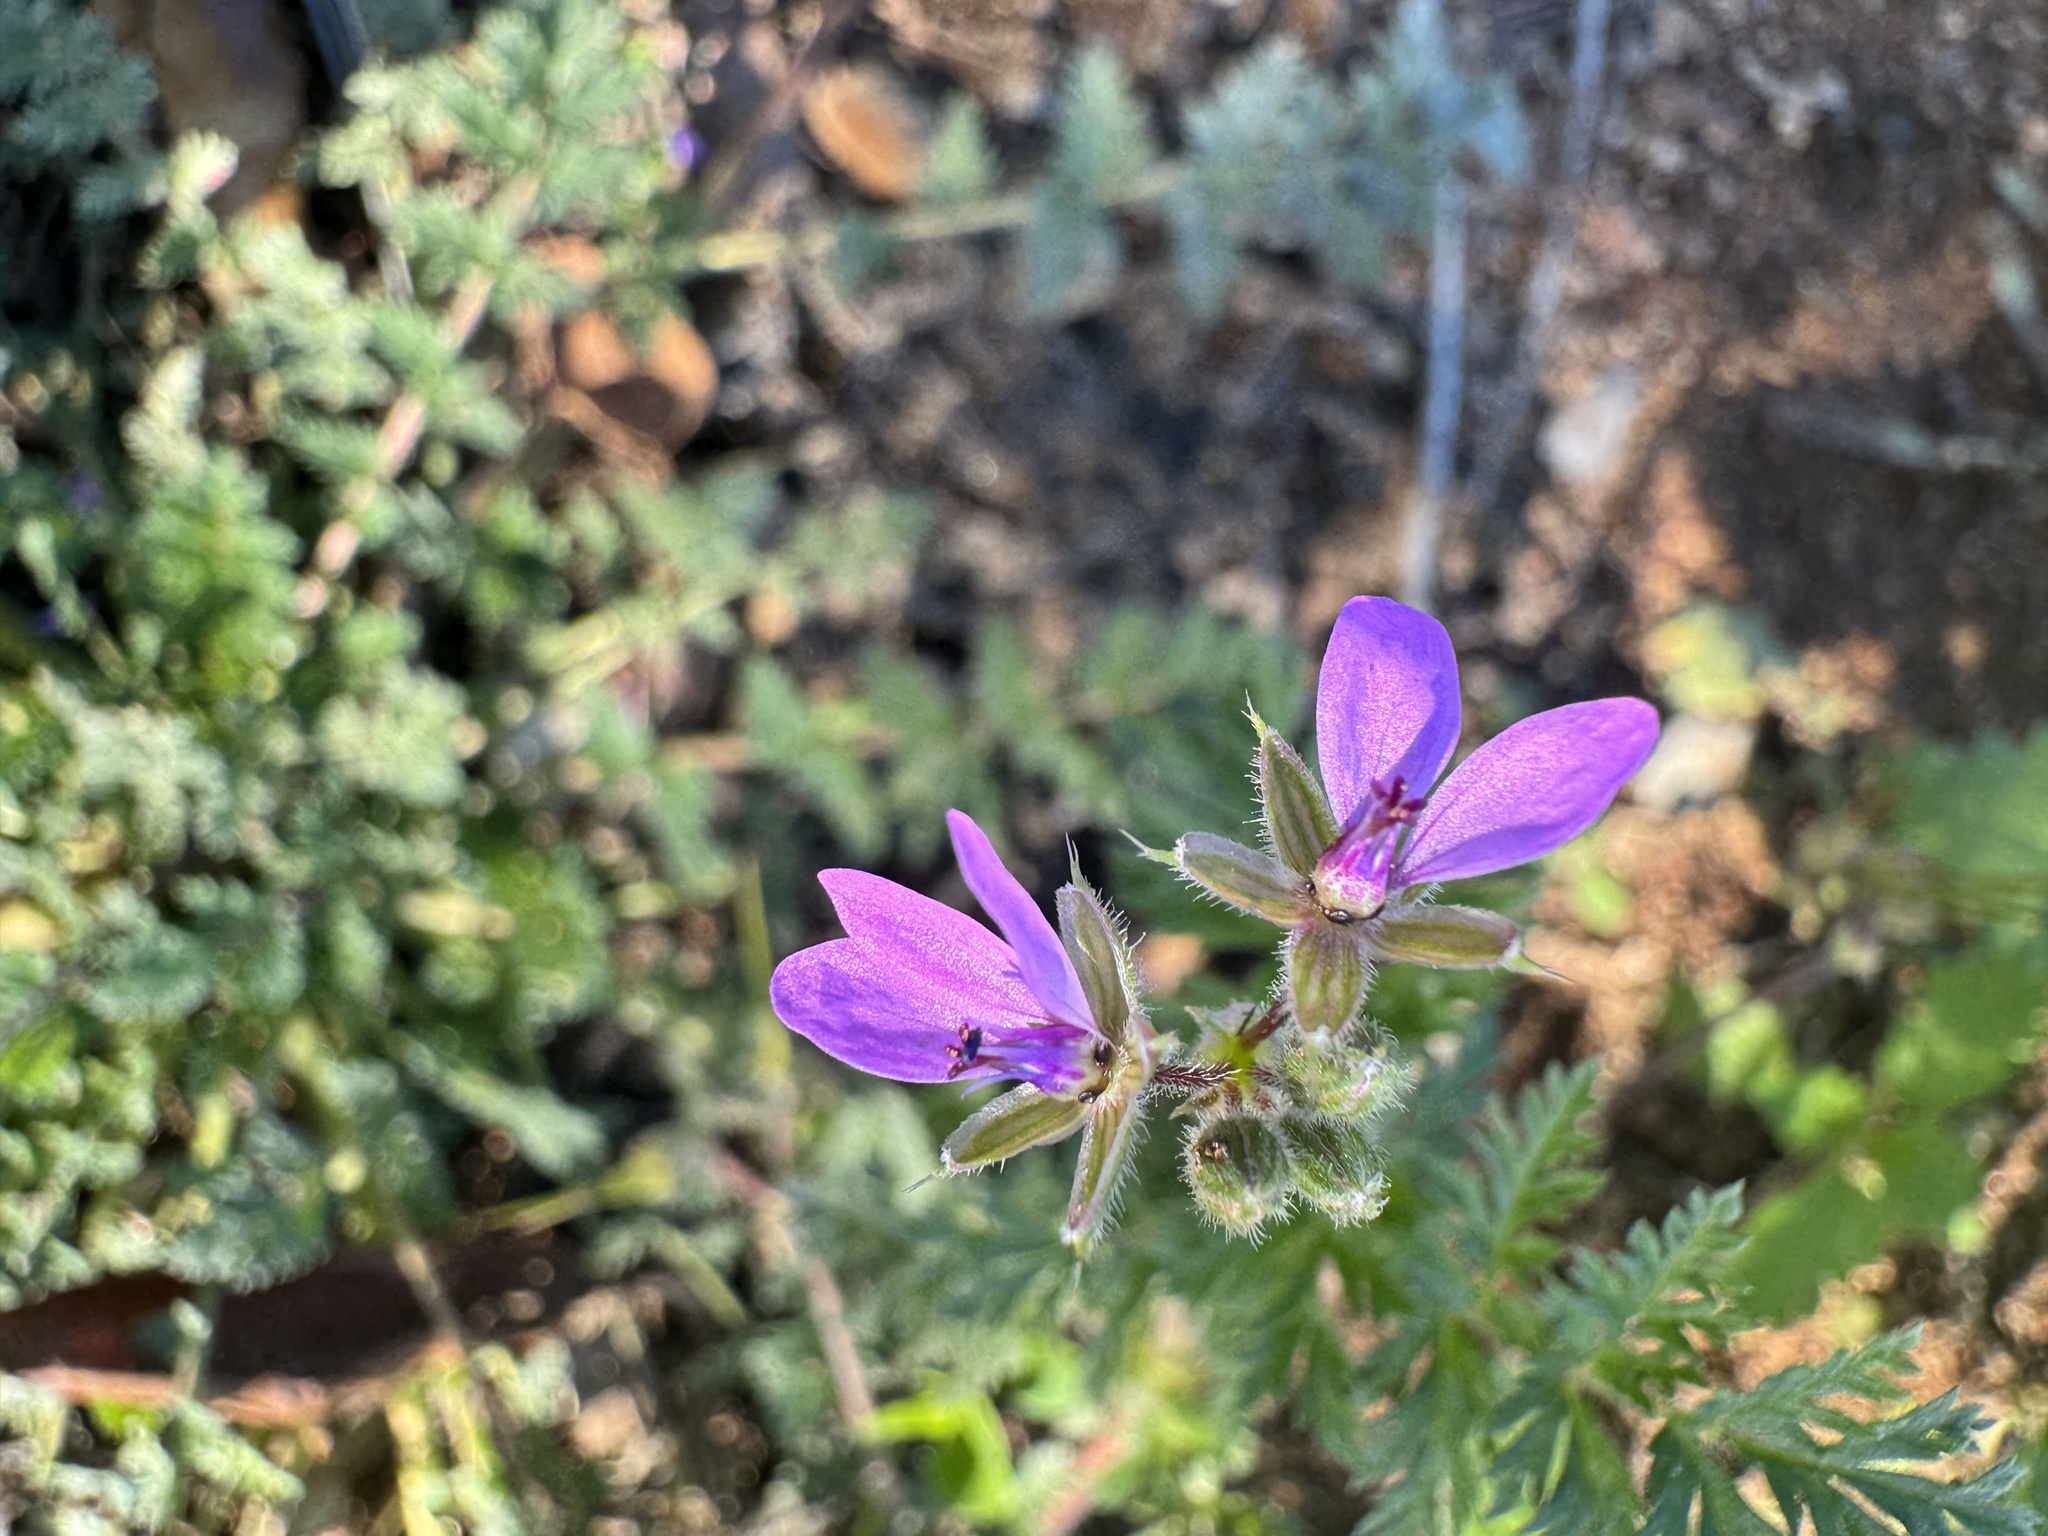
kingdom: Plantae
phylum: Tracheophyta
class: Magnoliopsida
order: Geraniales
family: Geraniaceae
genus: Erodium
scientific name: Erodium cicutarium
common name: Common stork's-bill
